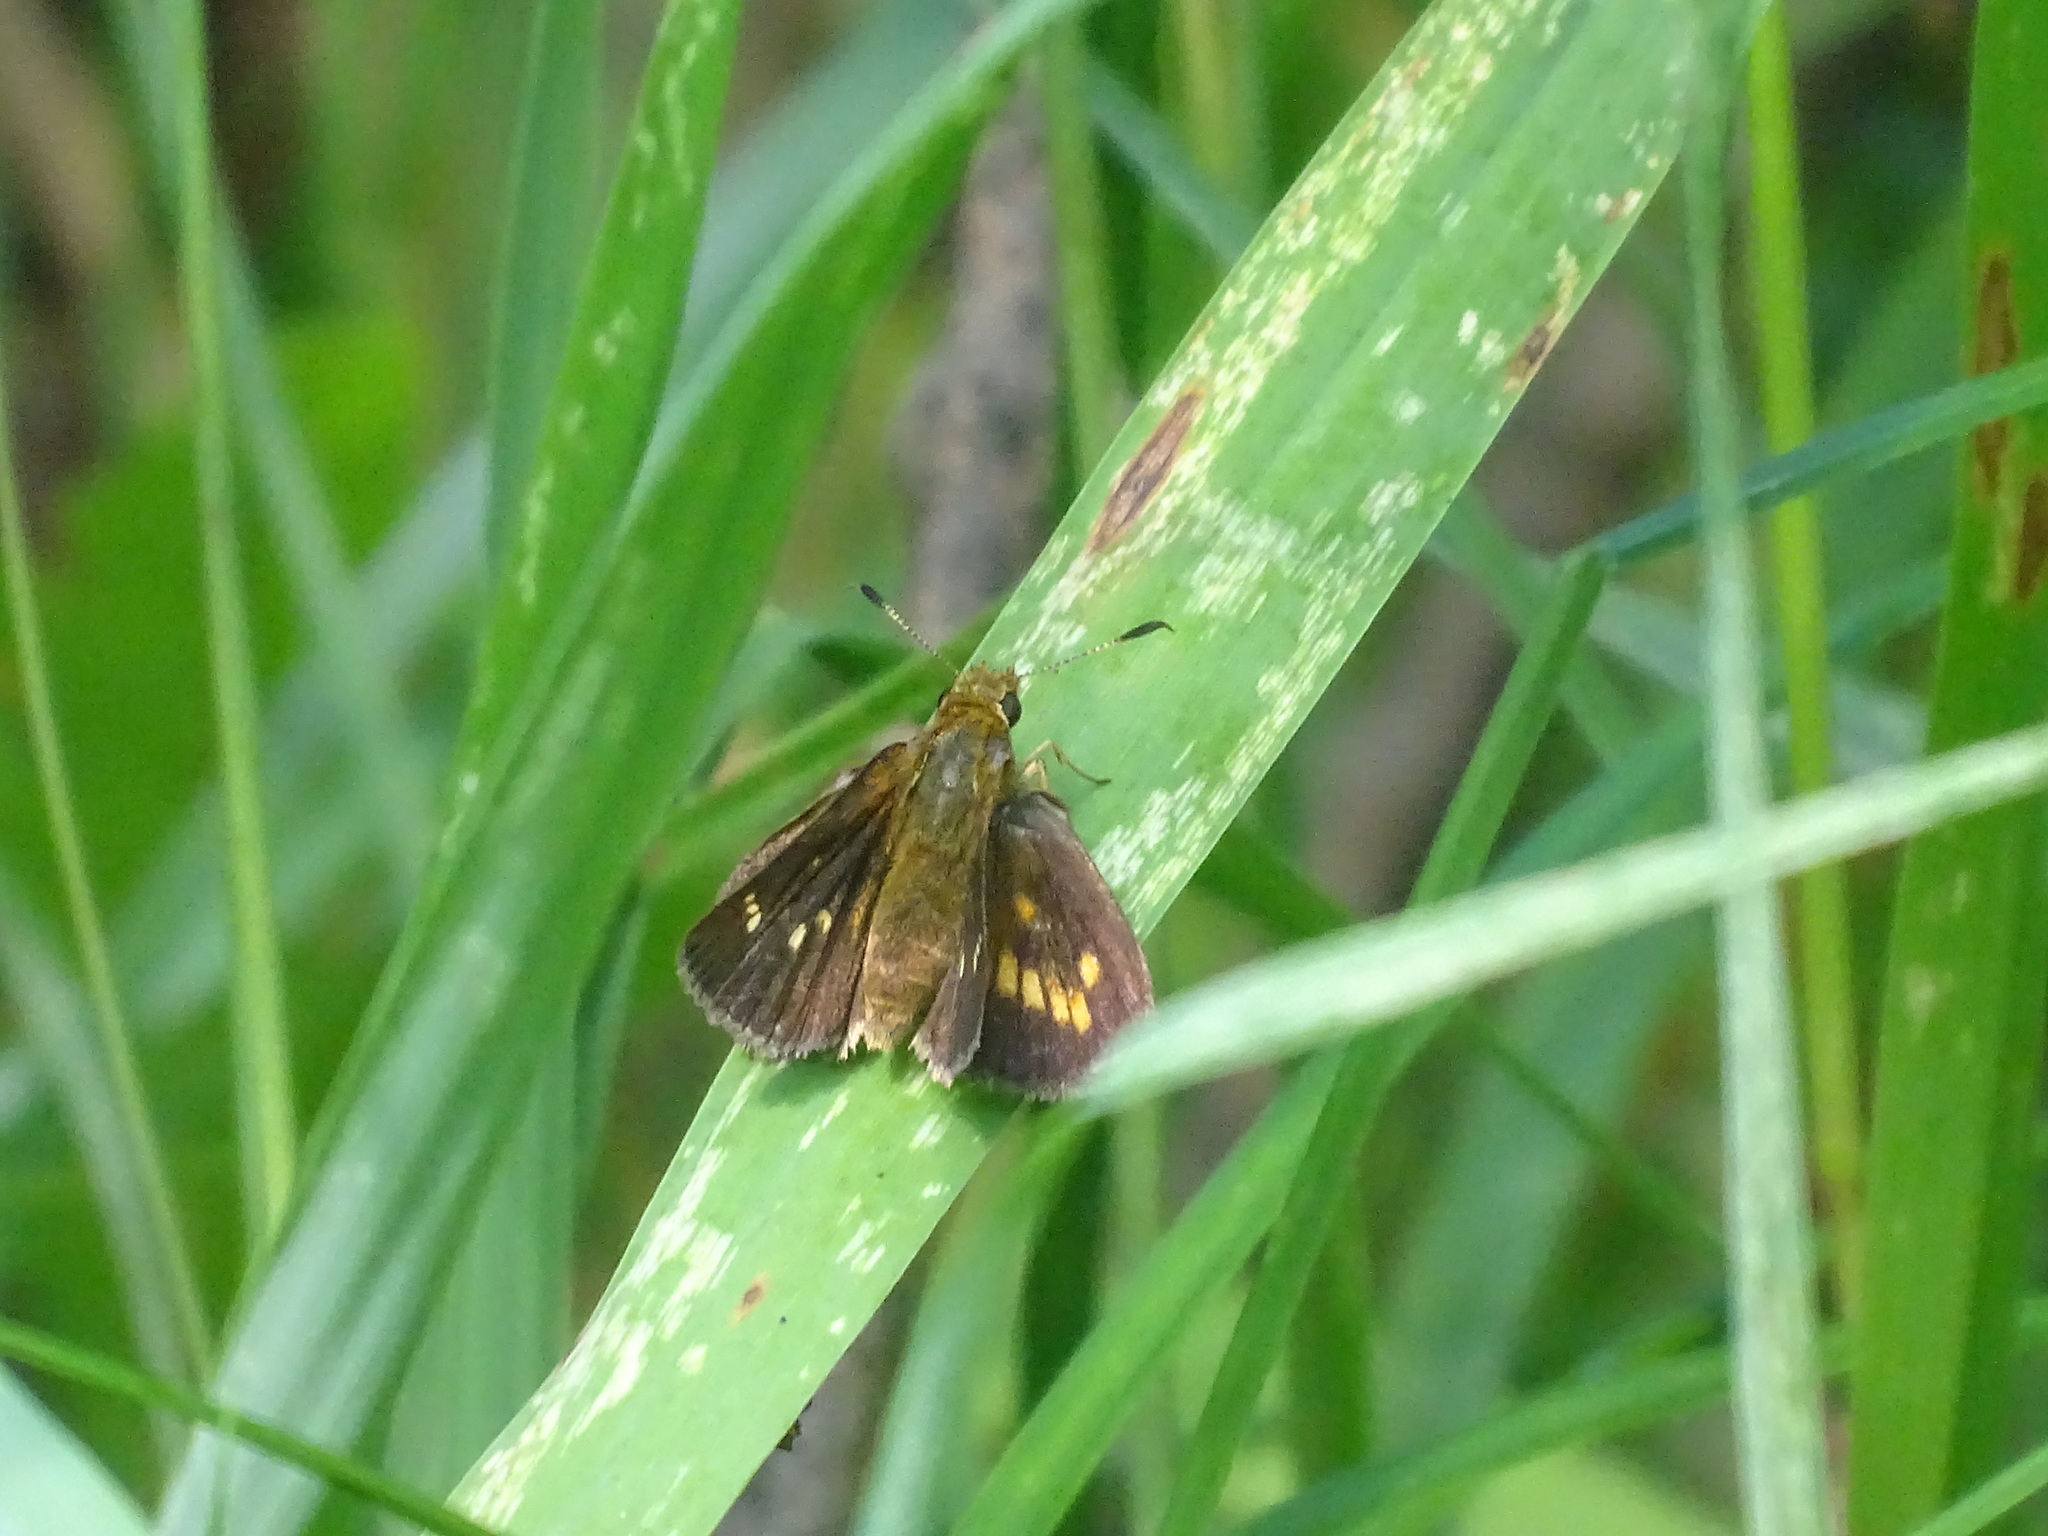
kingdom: Animalia
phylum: Arthropoda
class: Insecta
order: Lepidoptera
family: Hesperiidae
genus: Poanes
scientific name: Poanes massasoit
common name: Mulberrywing
